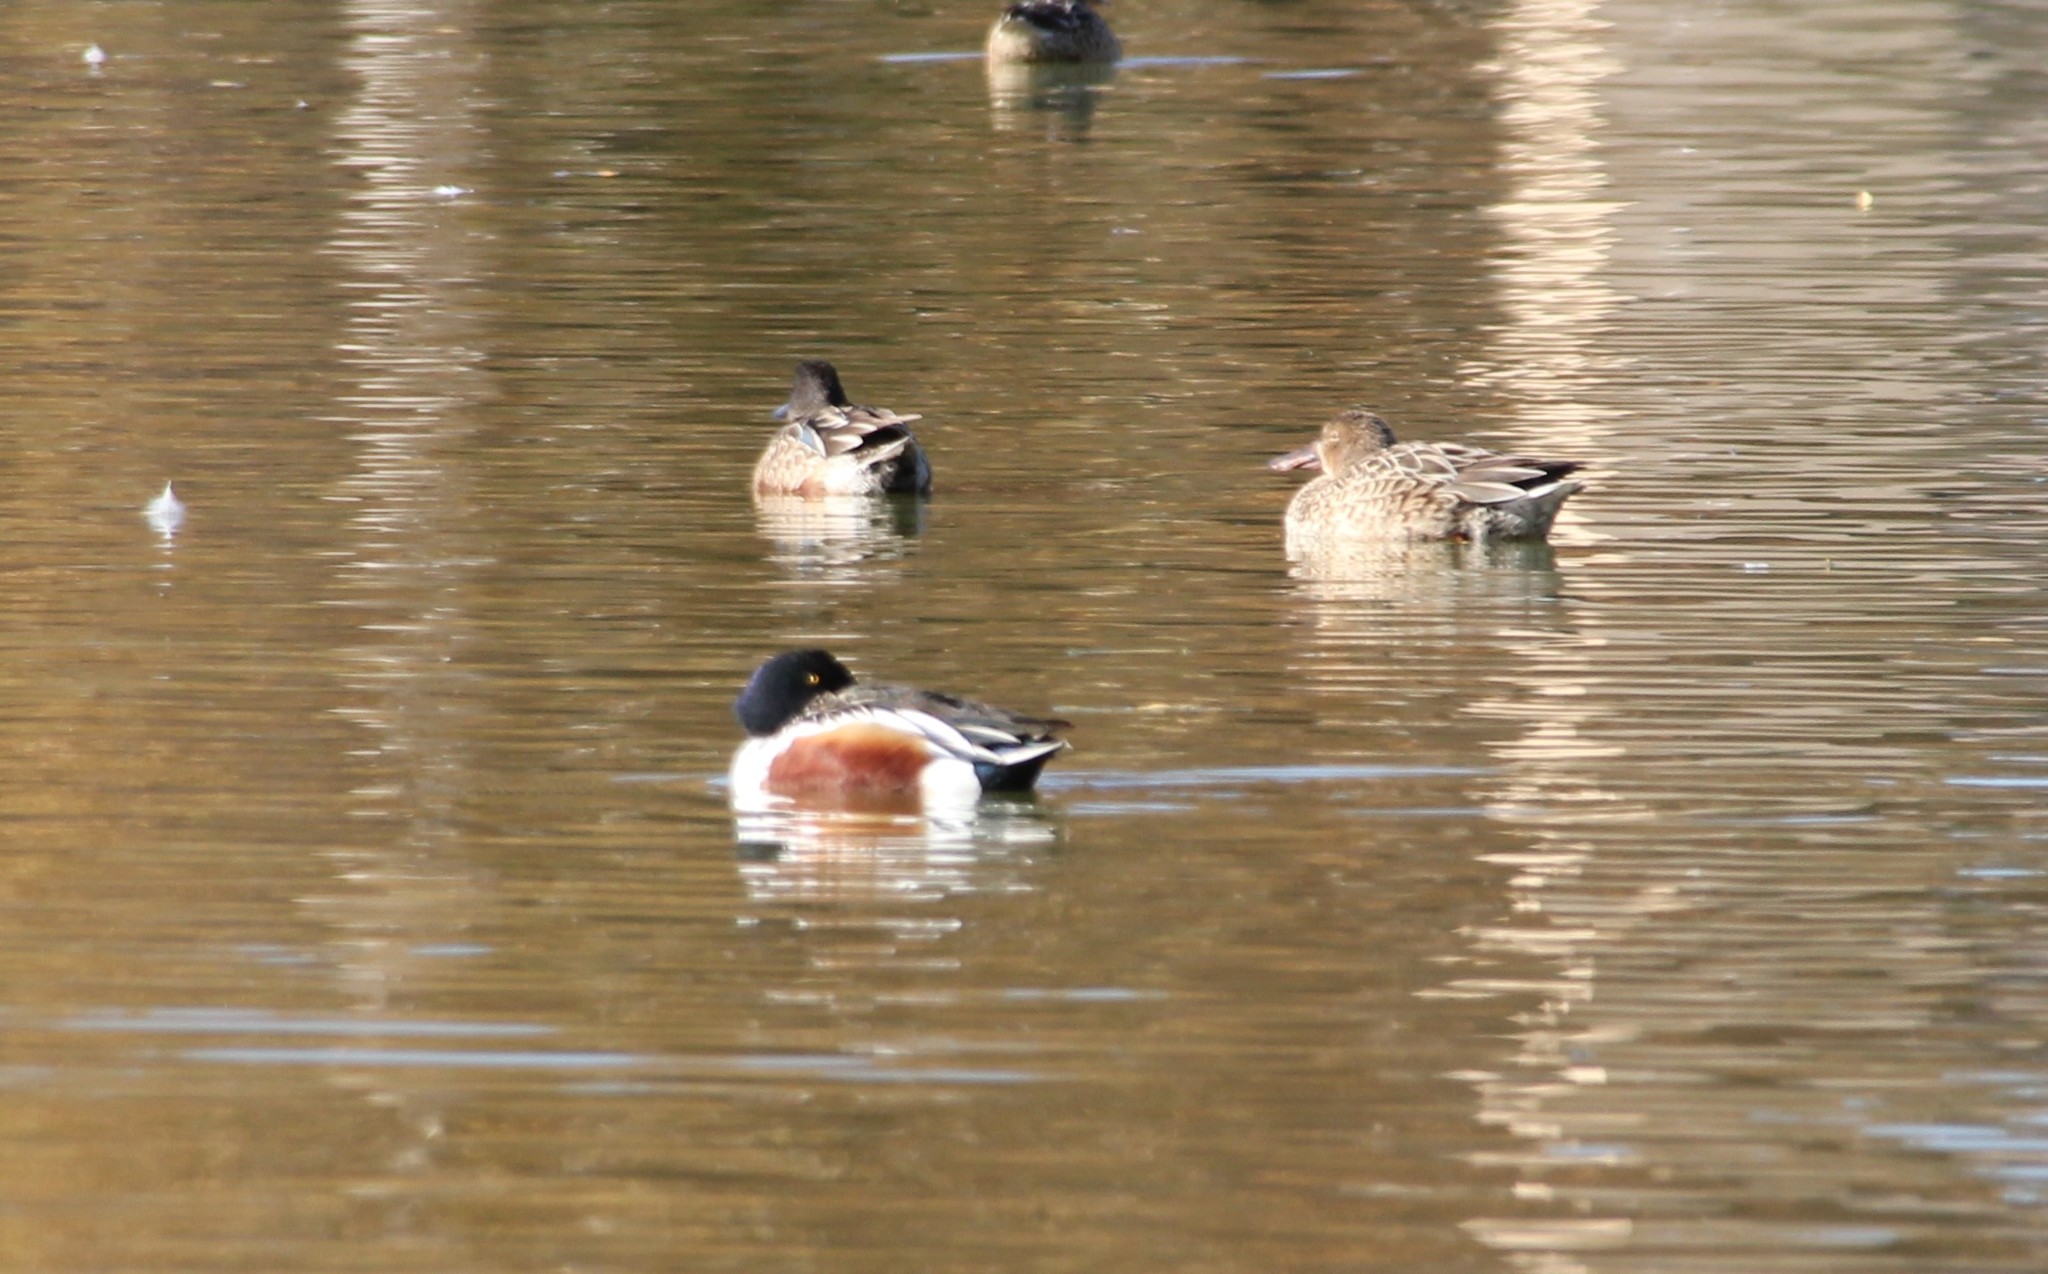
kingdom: Animalia
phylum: Chordata
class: Aves
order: Anseriformes
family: Anatidae
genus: Spatula
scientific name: Spatula clypeata
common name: Northern shoveler
